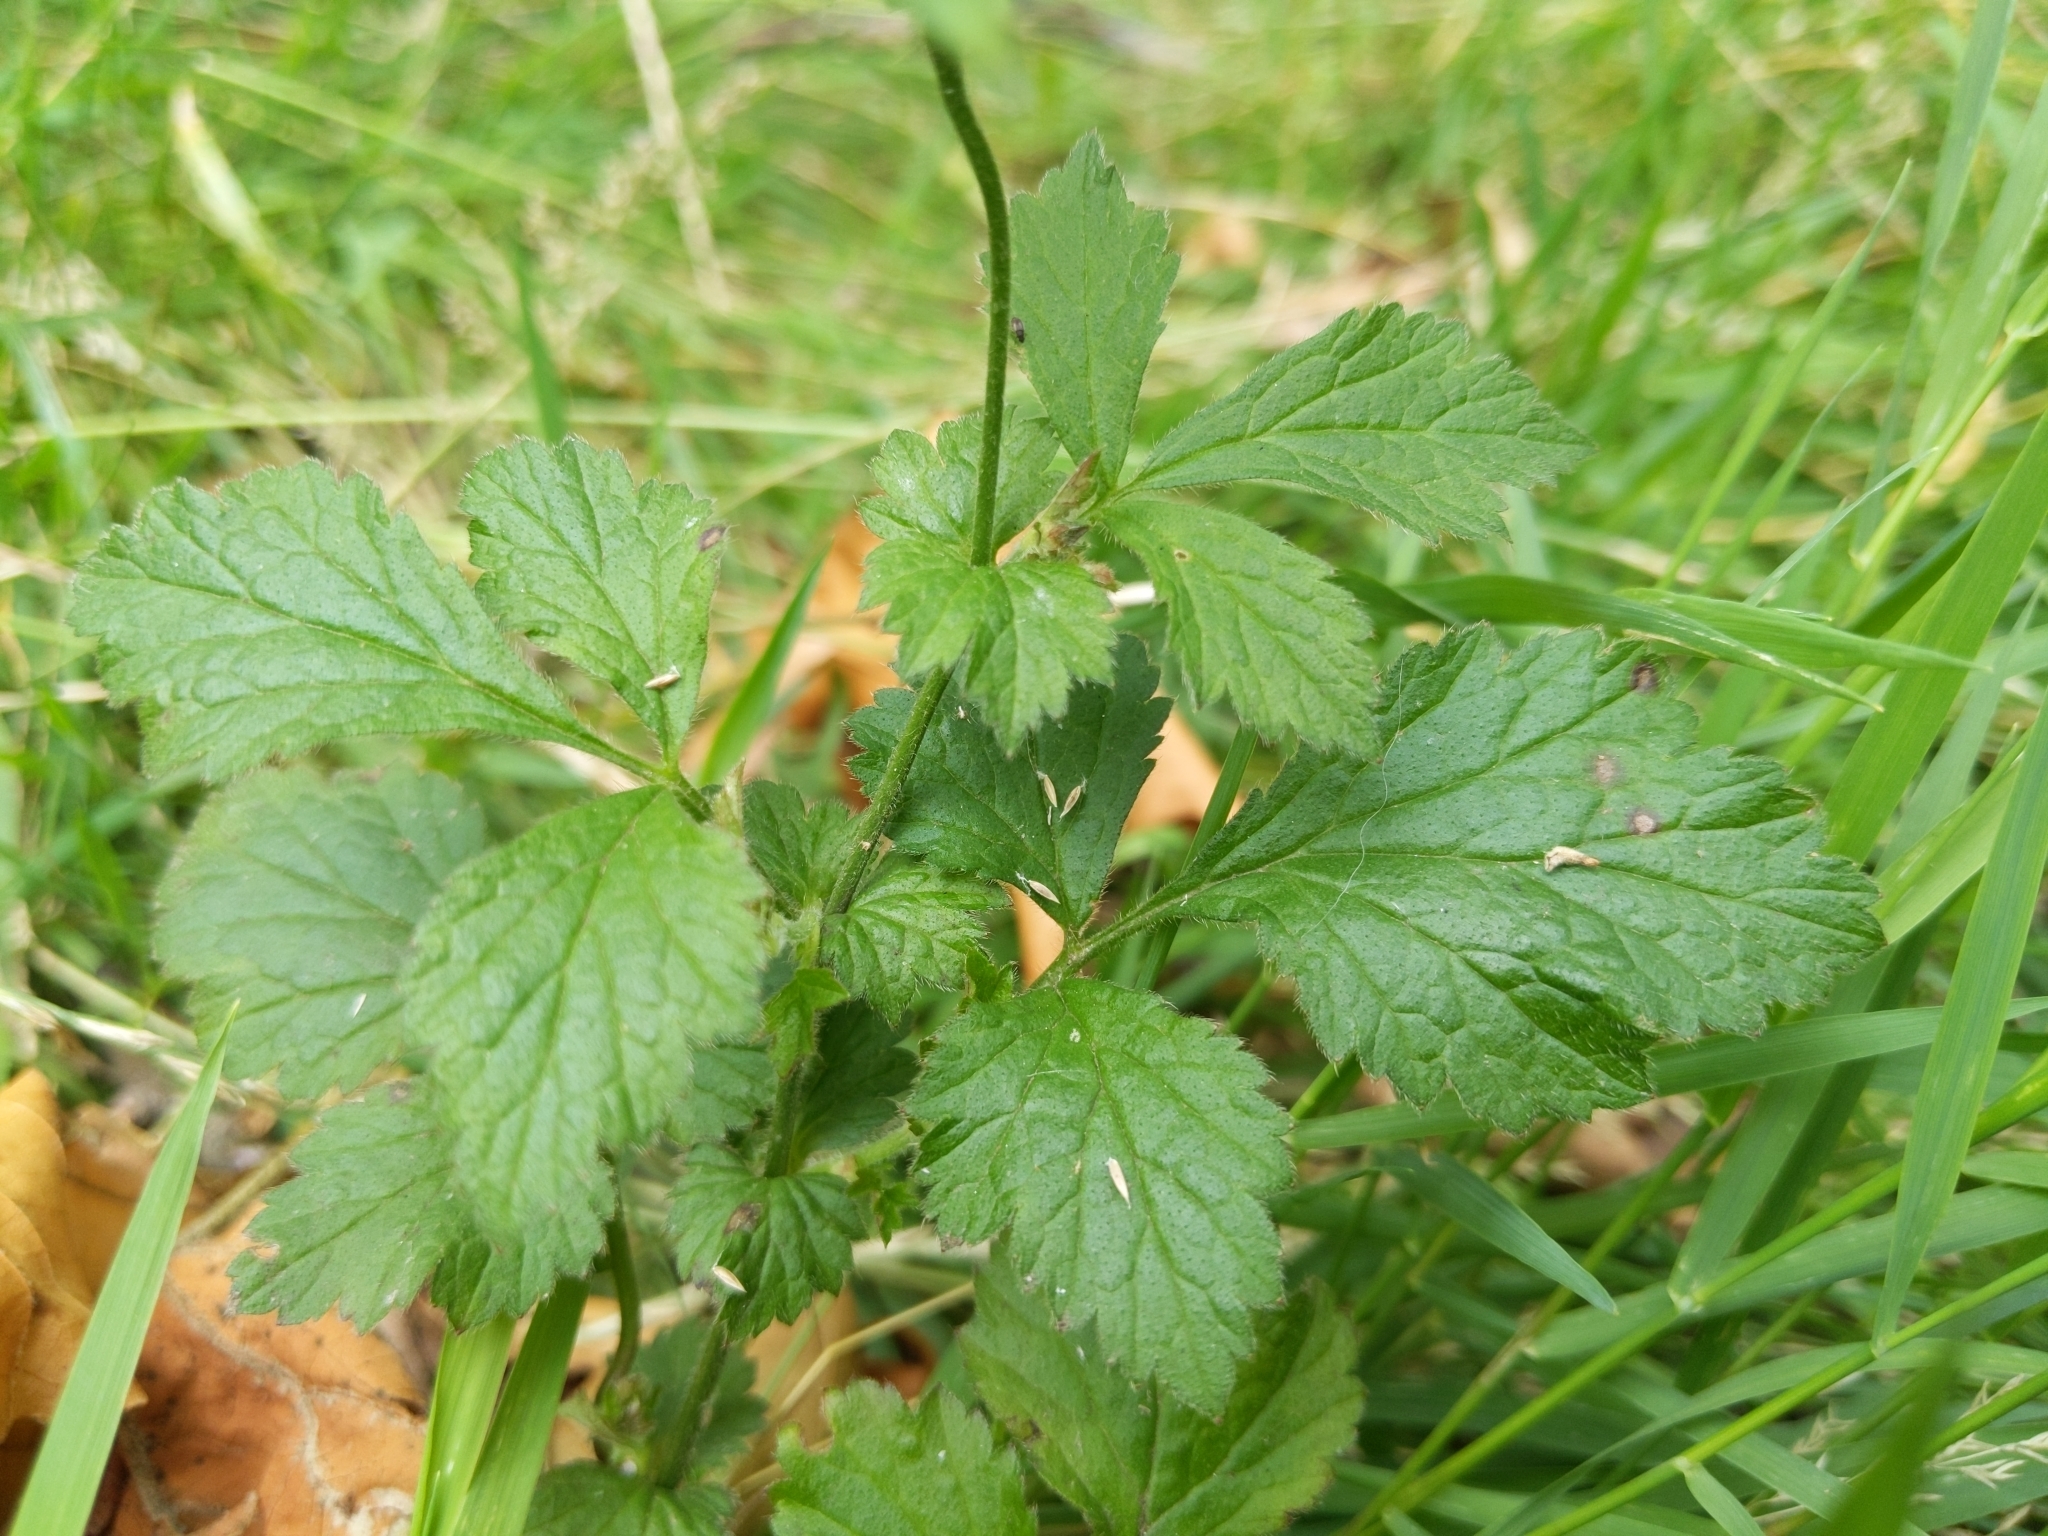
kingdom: Plantae
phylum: Tracheophyta
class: Magnoliopsida
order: Rosales
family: Rosaceae
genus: Geum
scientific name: Geum urbanum
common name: Wood avens
